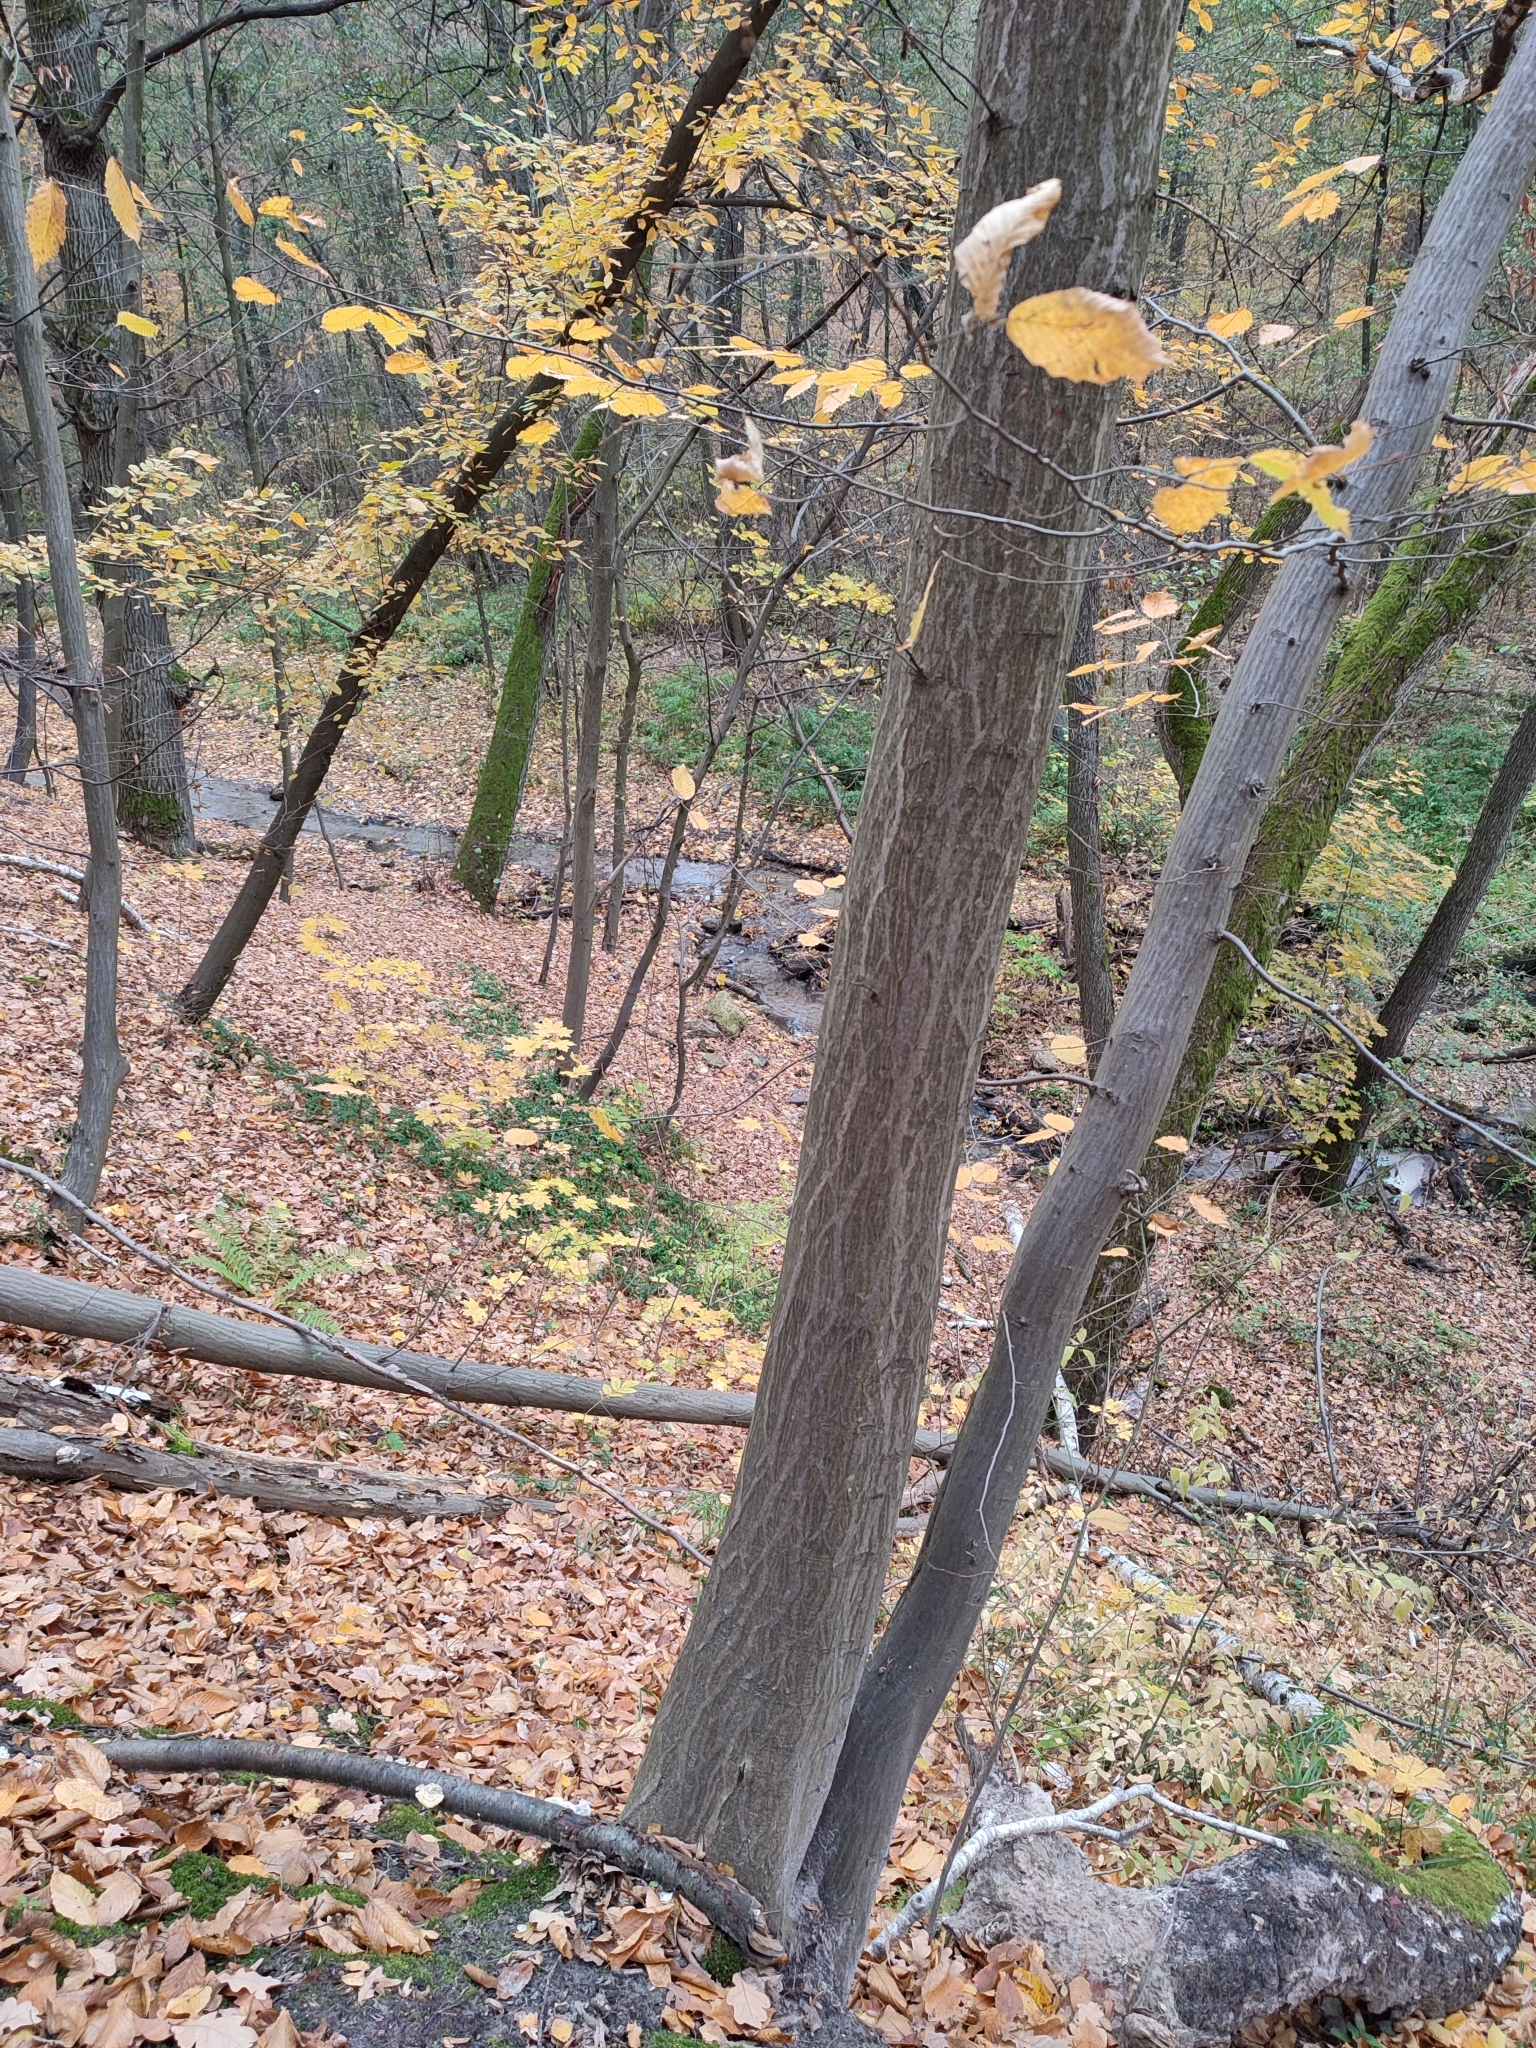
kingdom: Plantae
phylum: Tracheophyta
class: Magnoliopsida
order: Fagales
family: Betulaceae
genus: Carpinus
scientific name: Carpinus betulus
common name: Hornbeam
